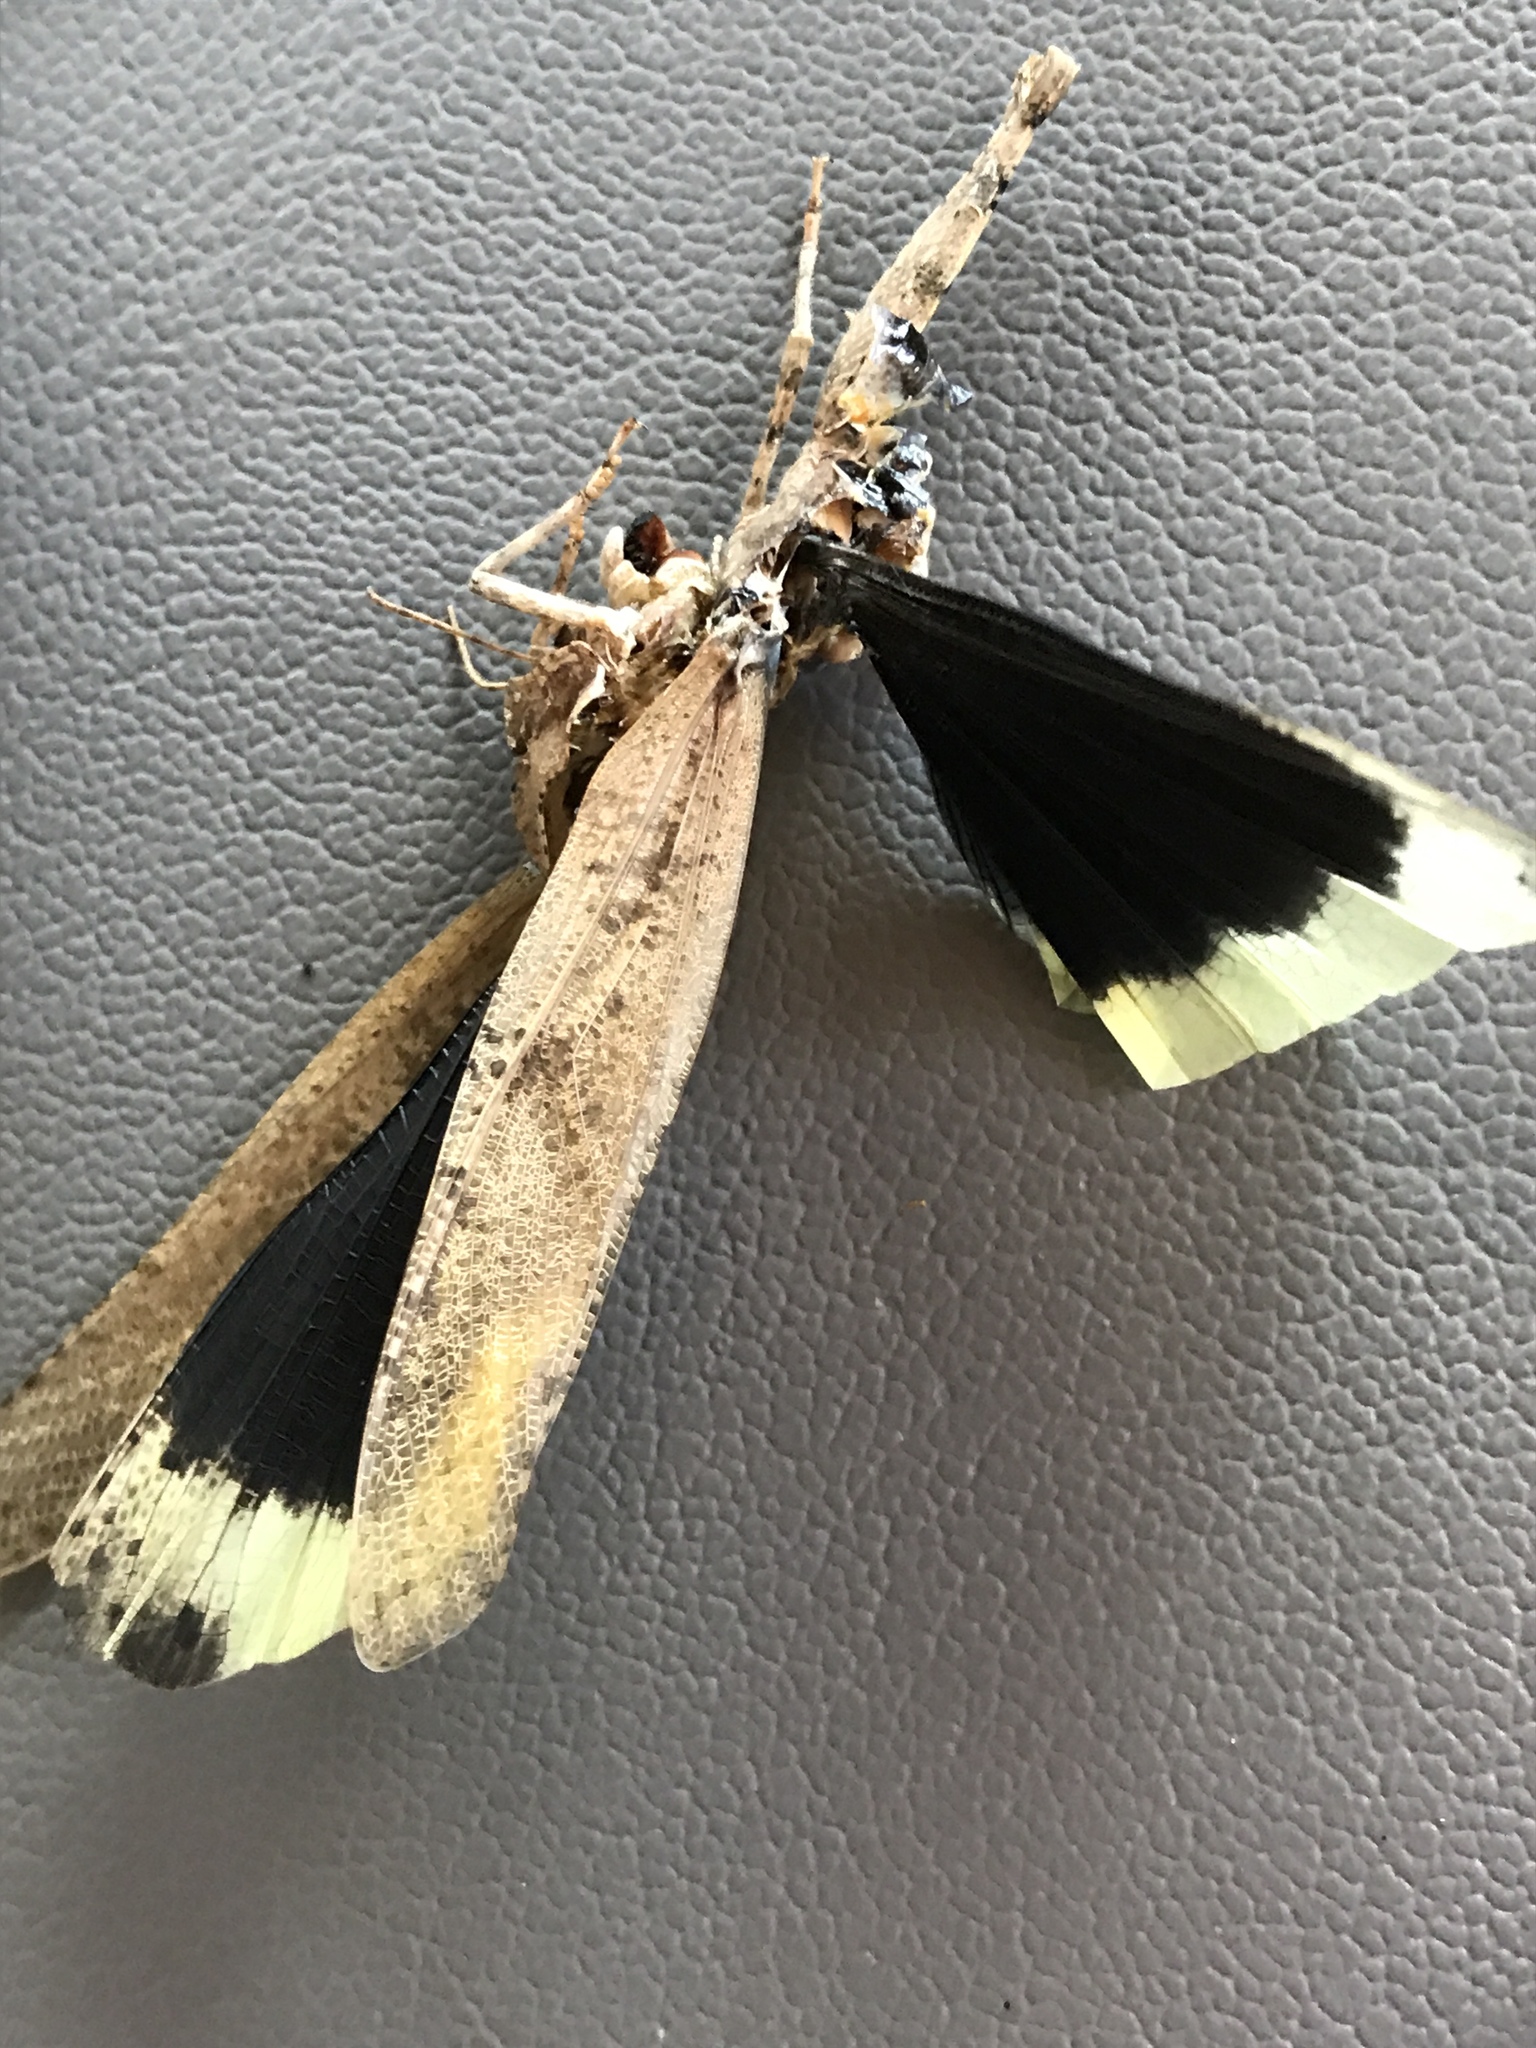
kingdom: Animalia
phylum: Arthropoda
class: Insecta
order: Orthoptera
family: Acrididae
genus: Dissosteira
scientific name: Dissosteira carolina
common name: Carolina grasshopper
